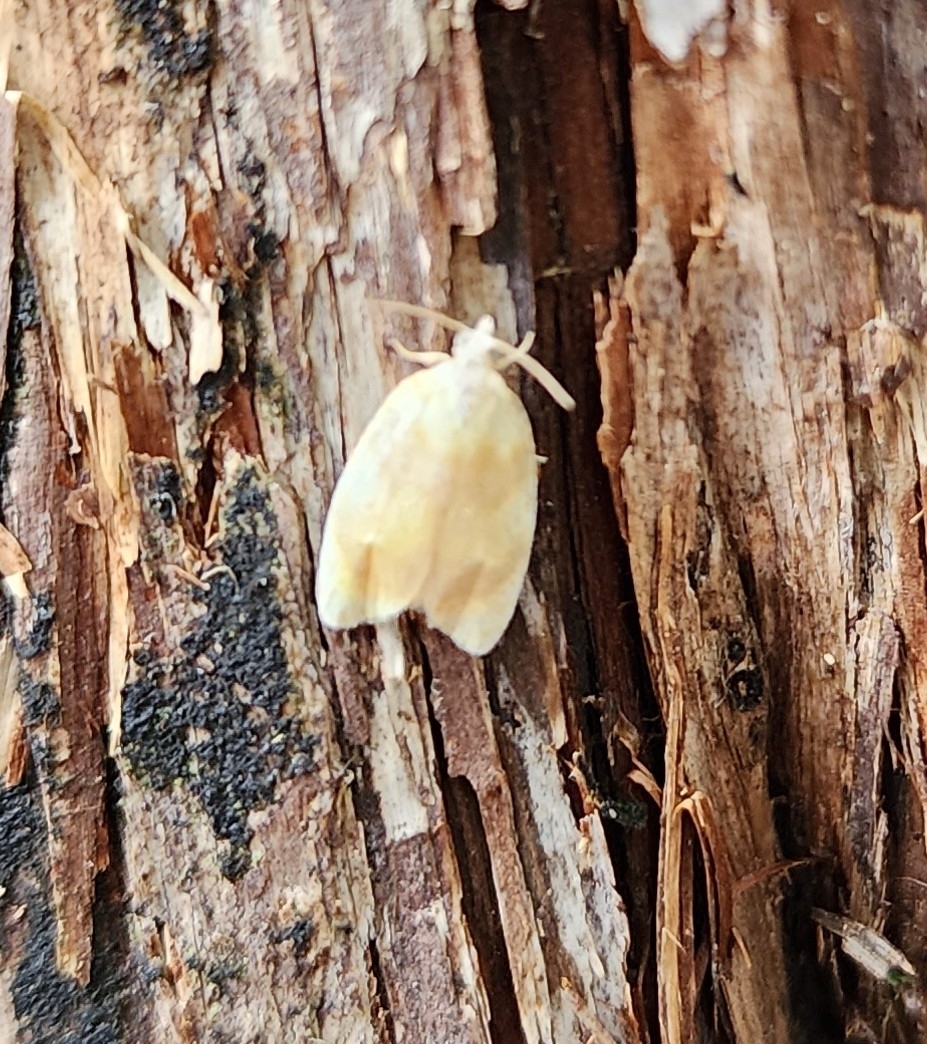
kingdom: Animalia
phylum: Arthropoda
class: Insecta
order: Lepidoptera
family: Tortricidae
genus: Acleris
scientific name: Acleris semipurpurana
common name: Oak leaftier moth
